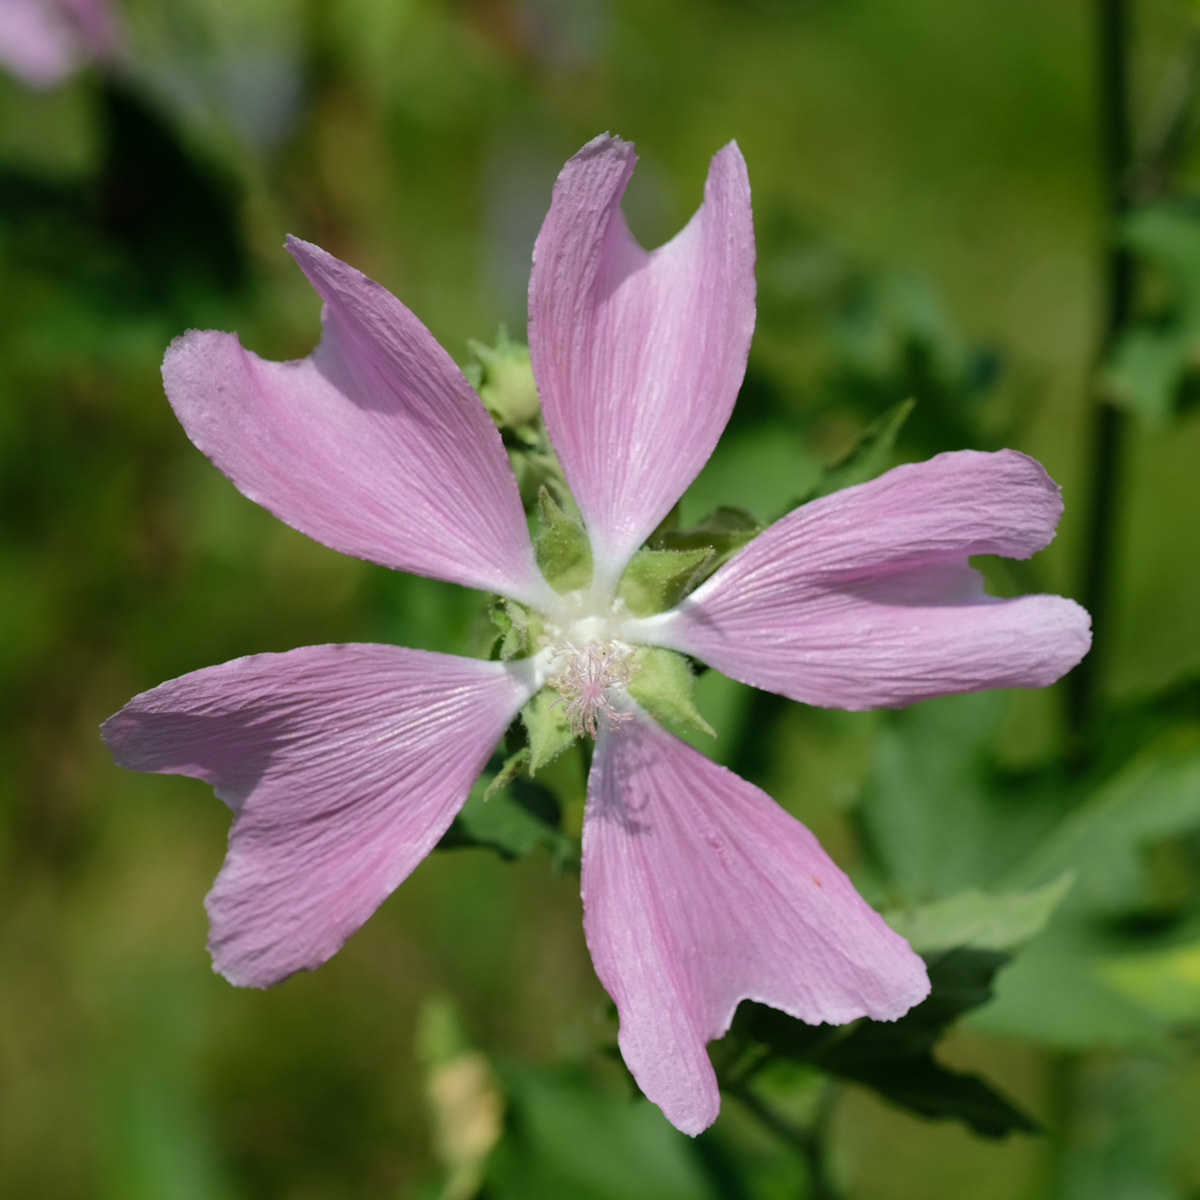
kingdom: Plantae
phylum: Tracheophyta
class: Magnoliopsida
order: Malvales
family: Malvaceae
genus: Malva
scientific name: Malva moschata
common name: Musk mallow
